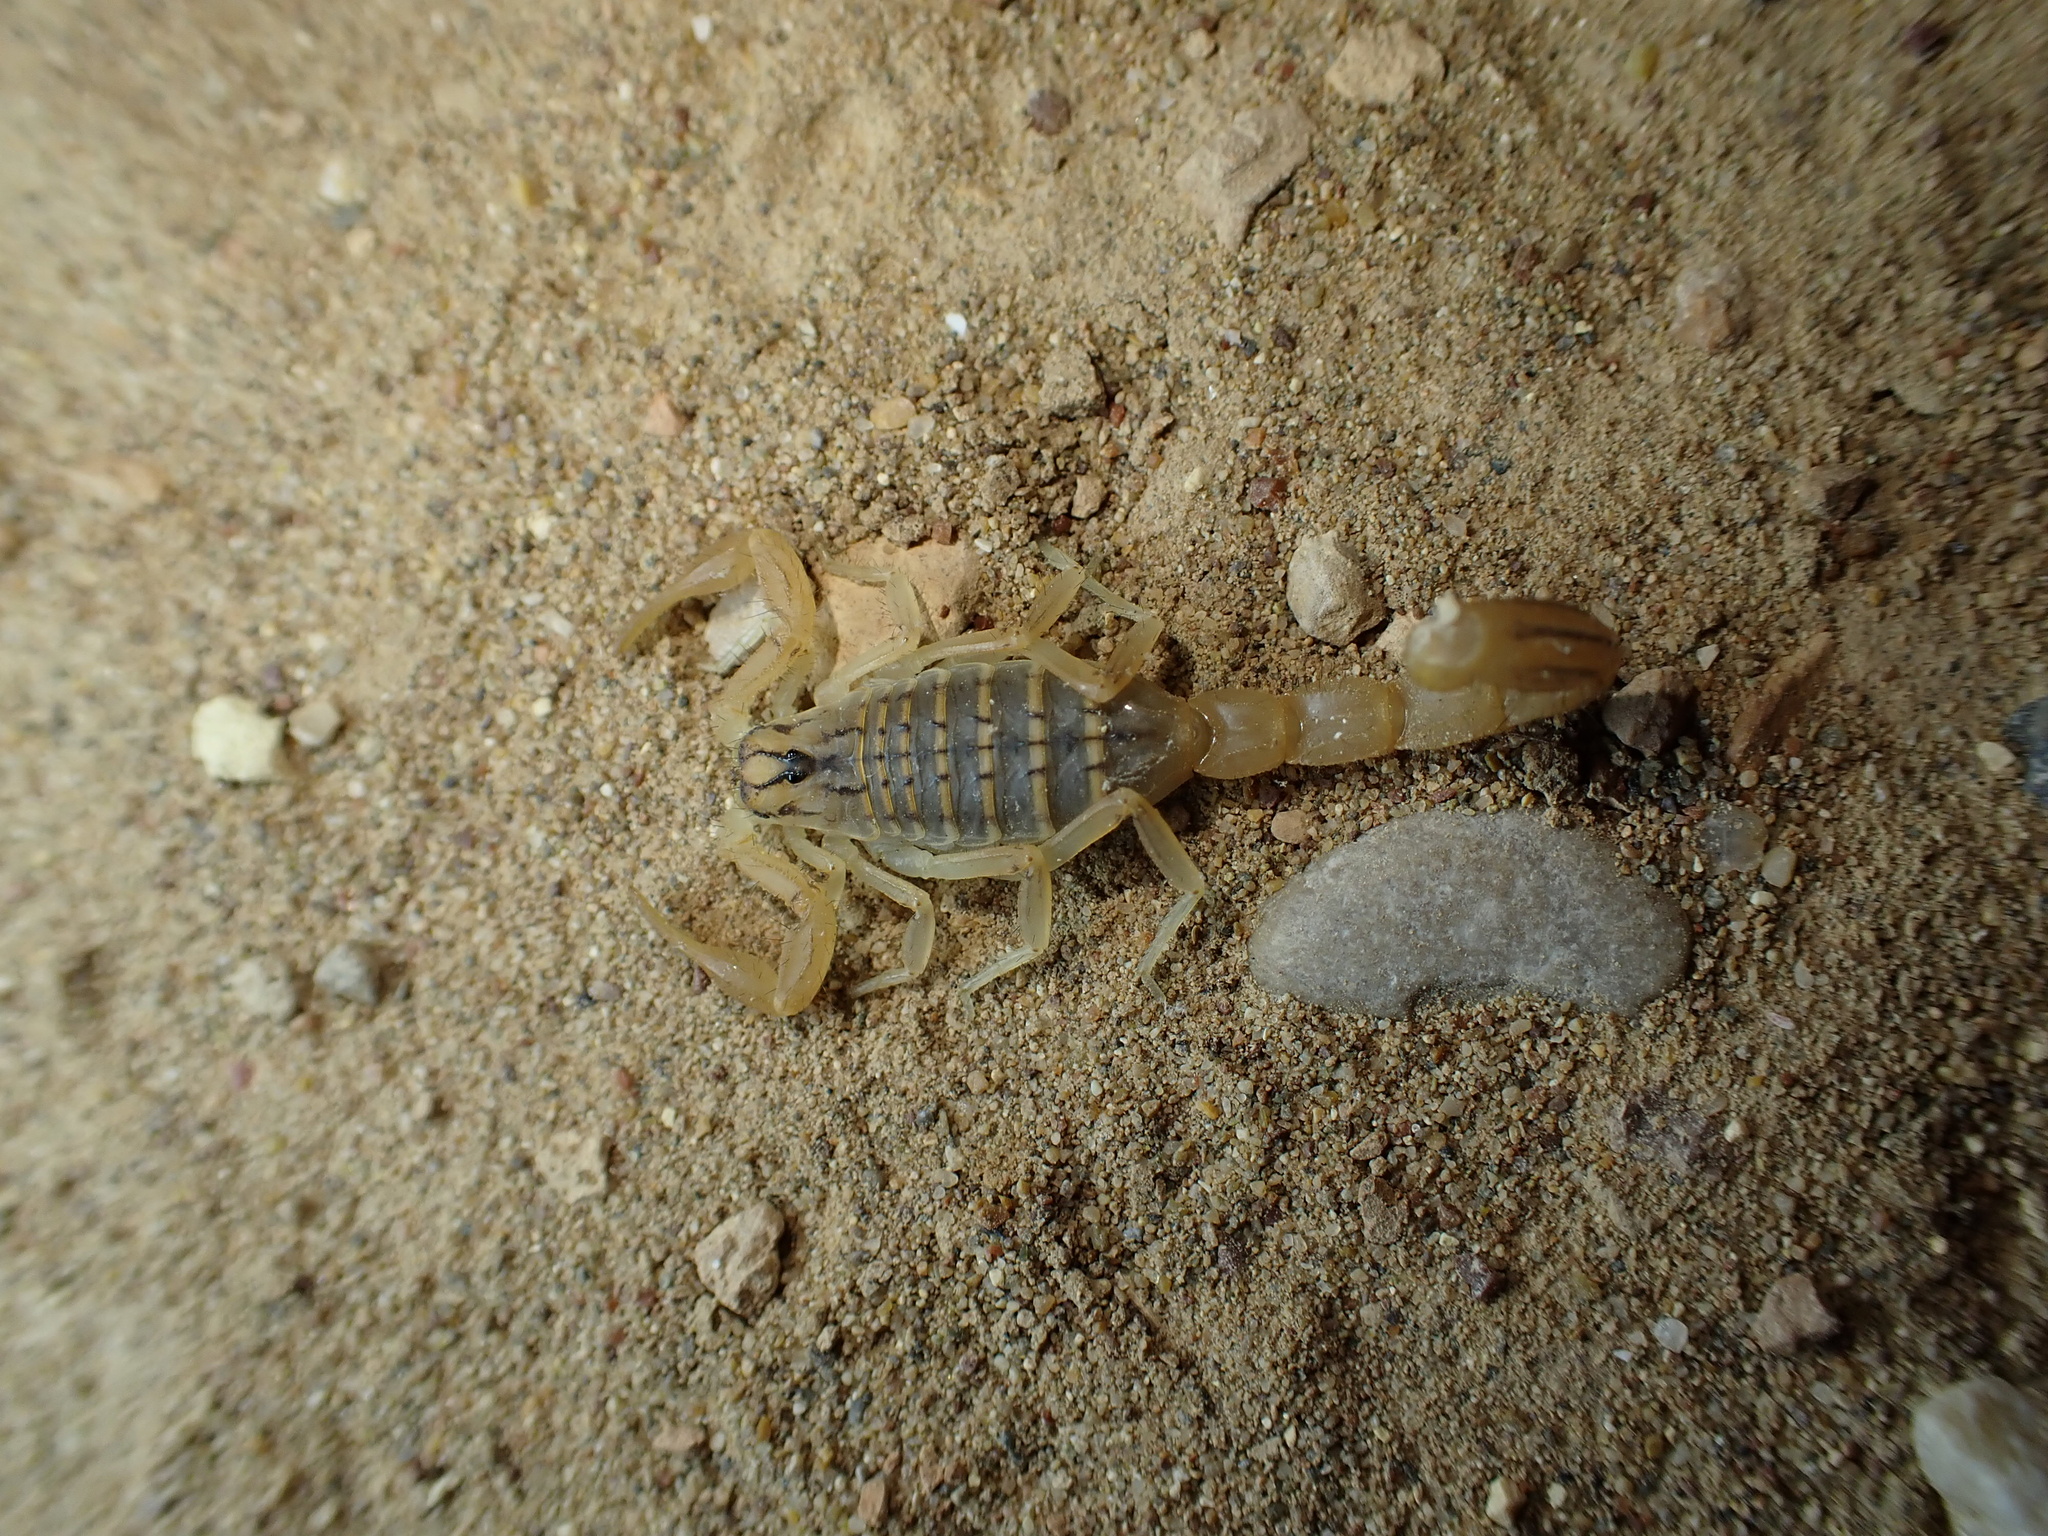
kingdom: Animalia
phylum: Arthropoda
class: Arachnida
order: Scorpiones
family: Buthidae
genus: Mesobuthus
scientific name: Mesobuthus crucittii
